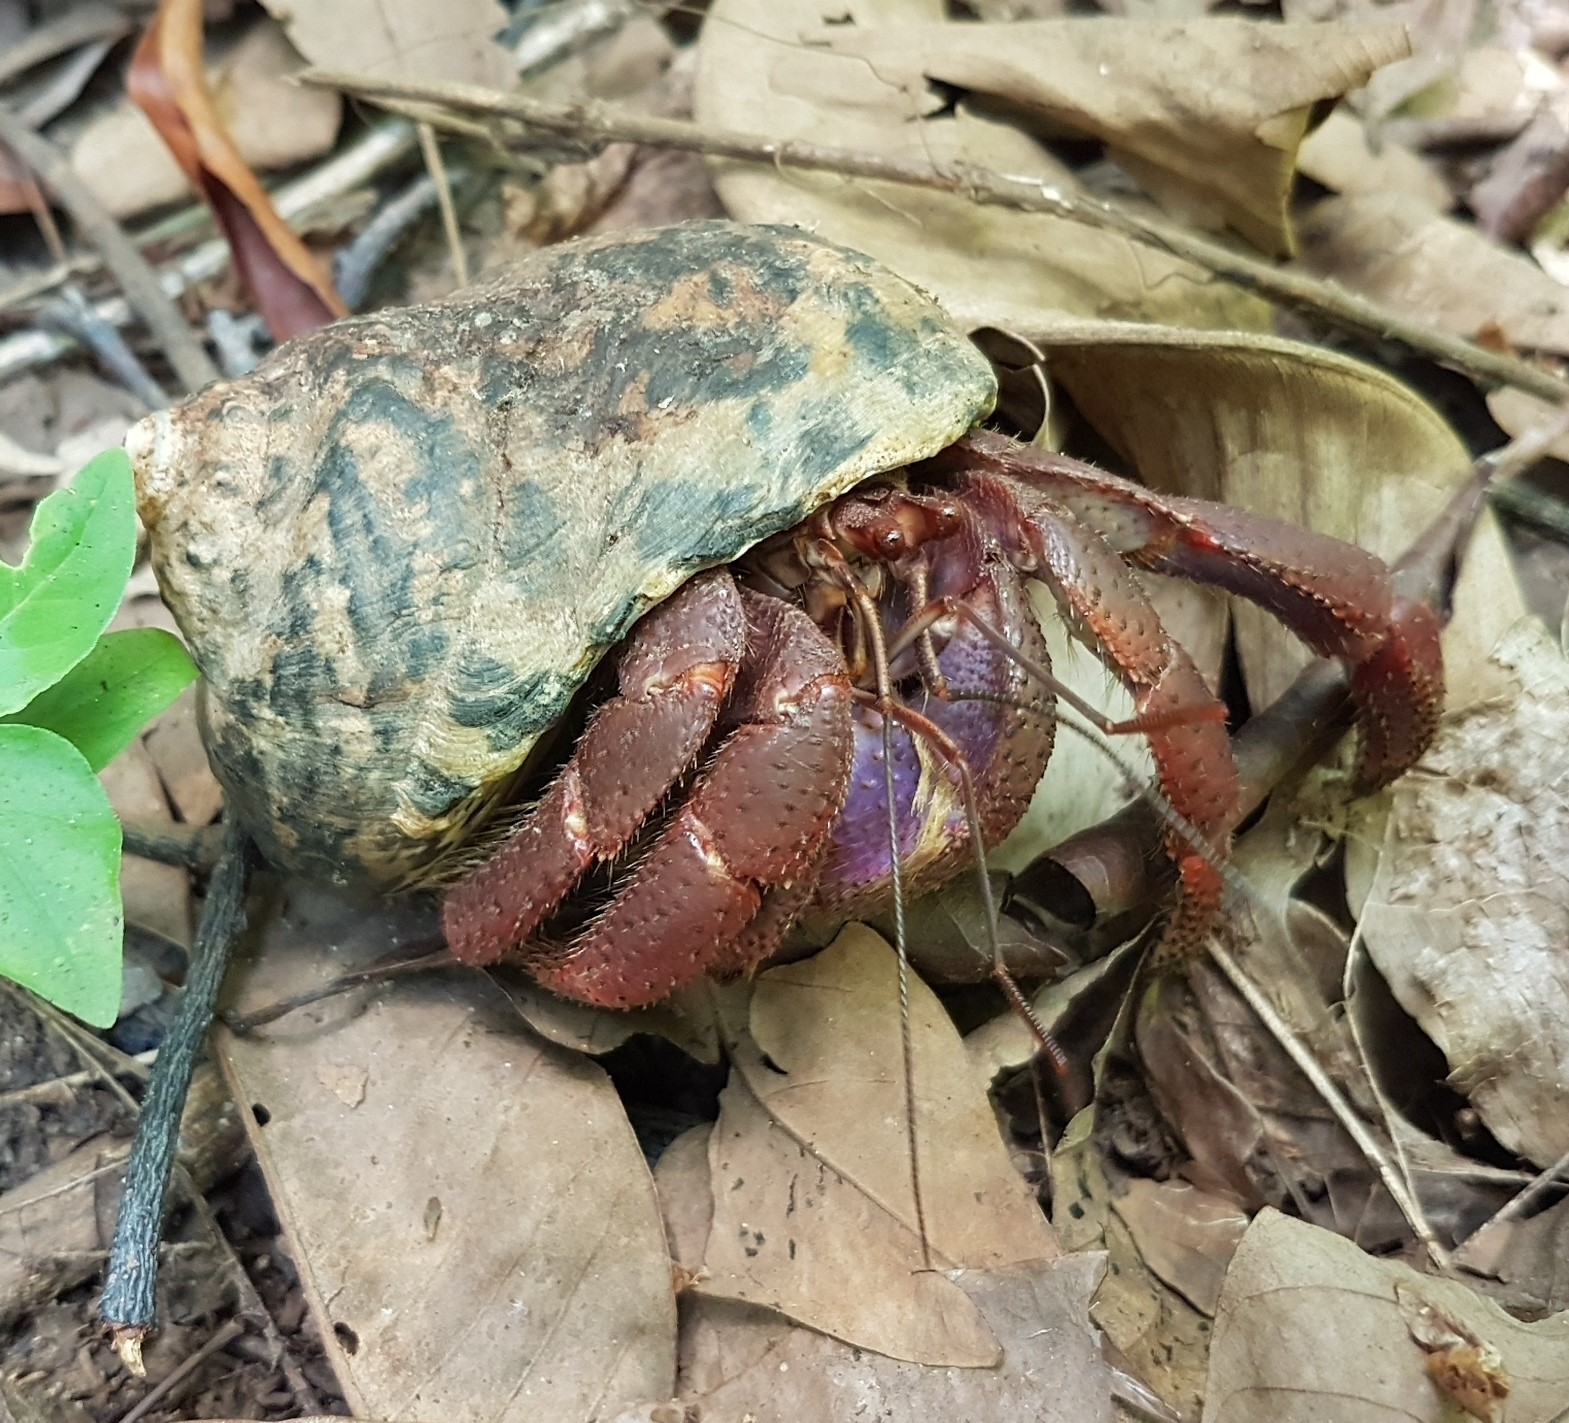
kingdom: Animalia
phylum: Mollusca
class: Gastropoda
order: Trochida
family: Tegulidae
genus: Cittarium
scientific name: Cittarium pica
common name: West indian topshell
